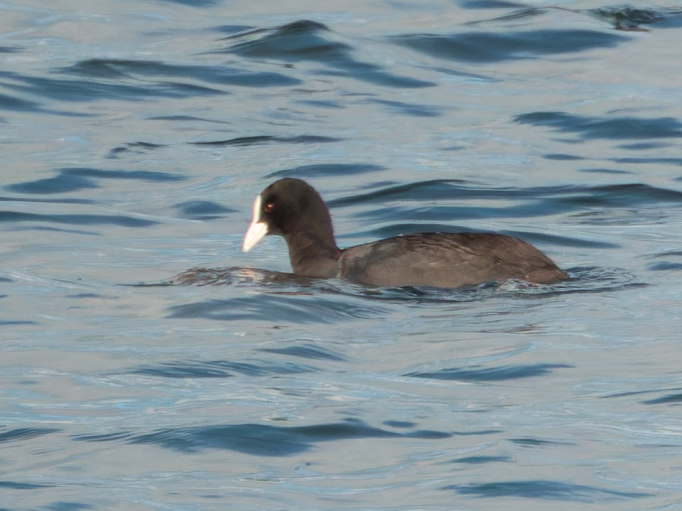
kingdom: Animalia
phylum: Chordata
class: Aves
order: Gruiformes
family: Rallidae
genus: Fulica
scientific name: Fulica atra
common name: Eurasian coot
